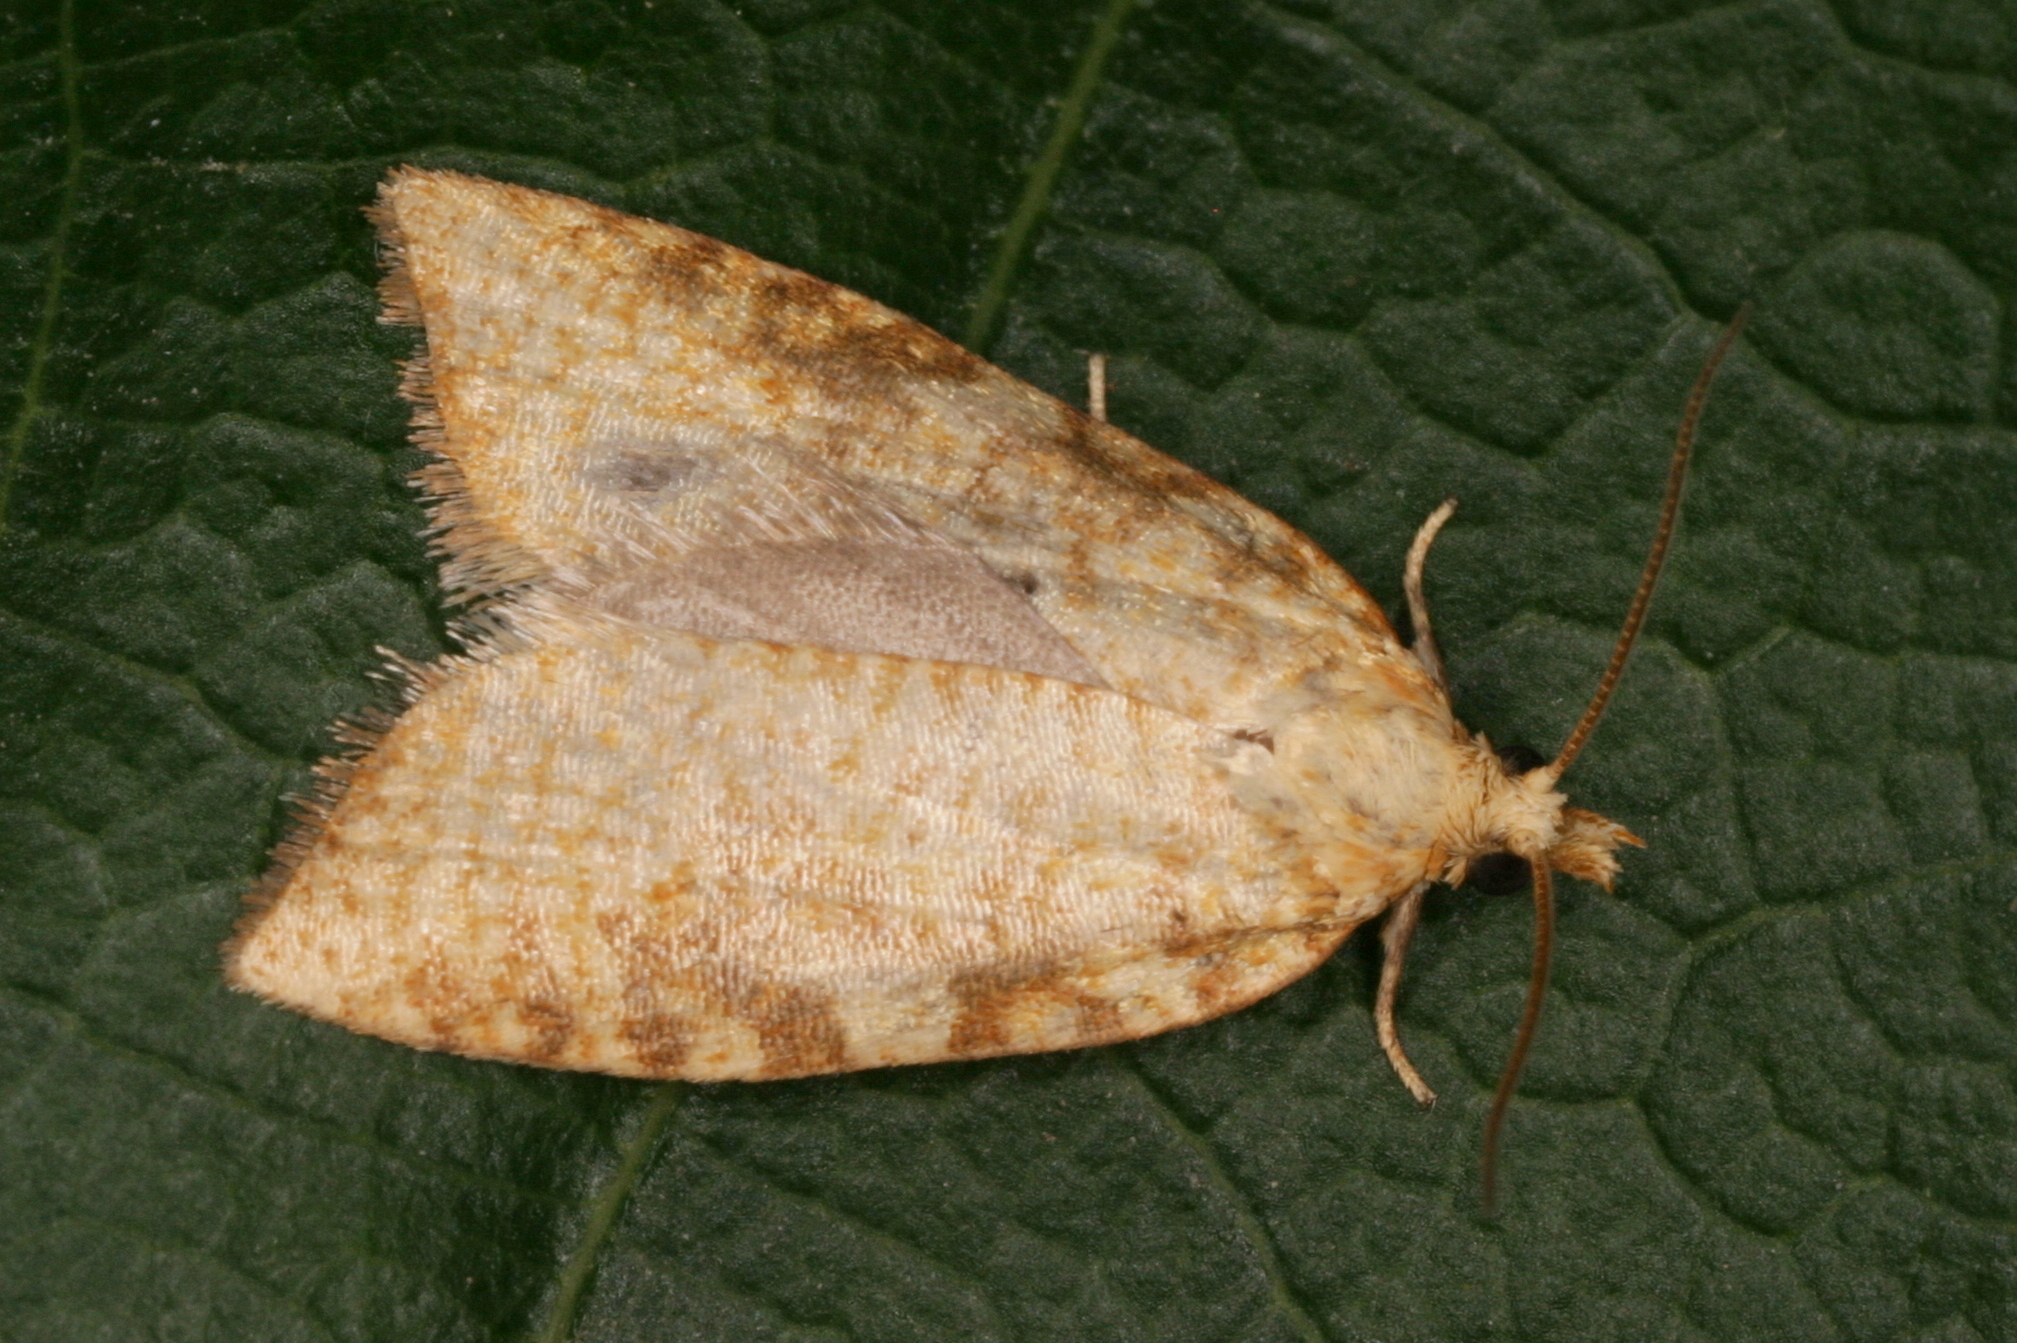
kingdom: Animalia
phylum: Arthropoda
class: Insecta
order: Lepidoptera
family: Tortricidae
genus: Aleimma
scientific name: Aleimma loeflingiana
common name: Yellow oak button
